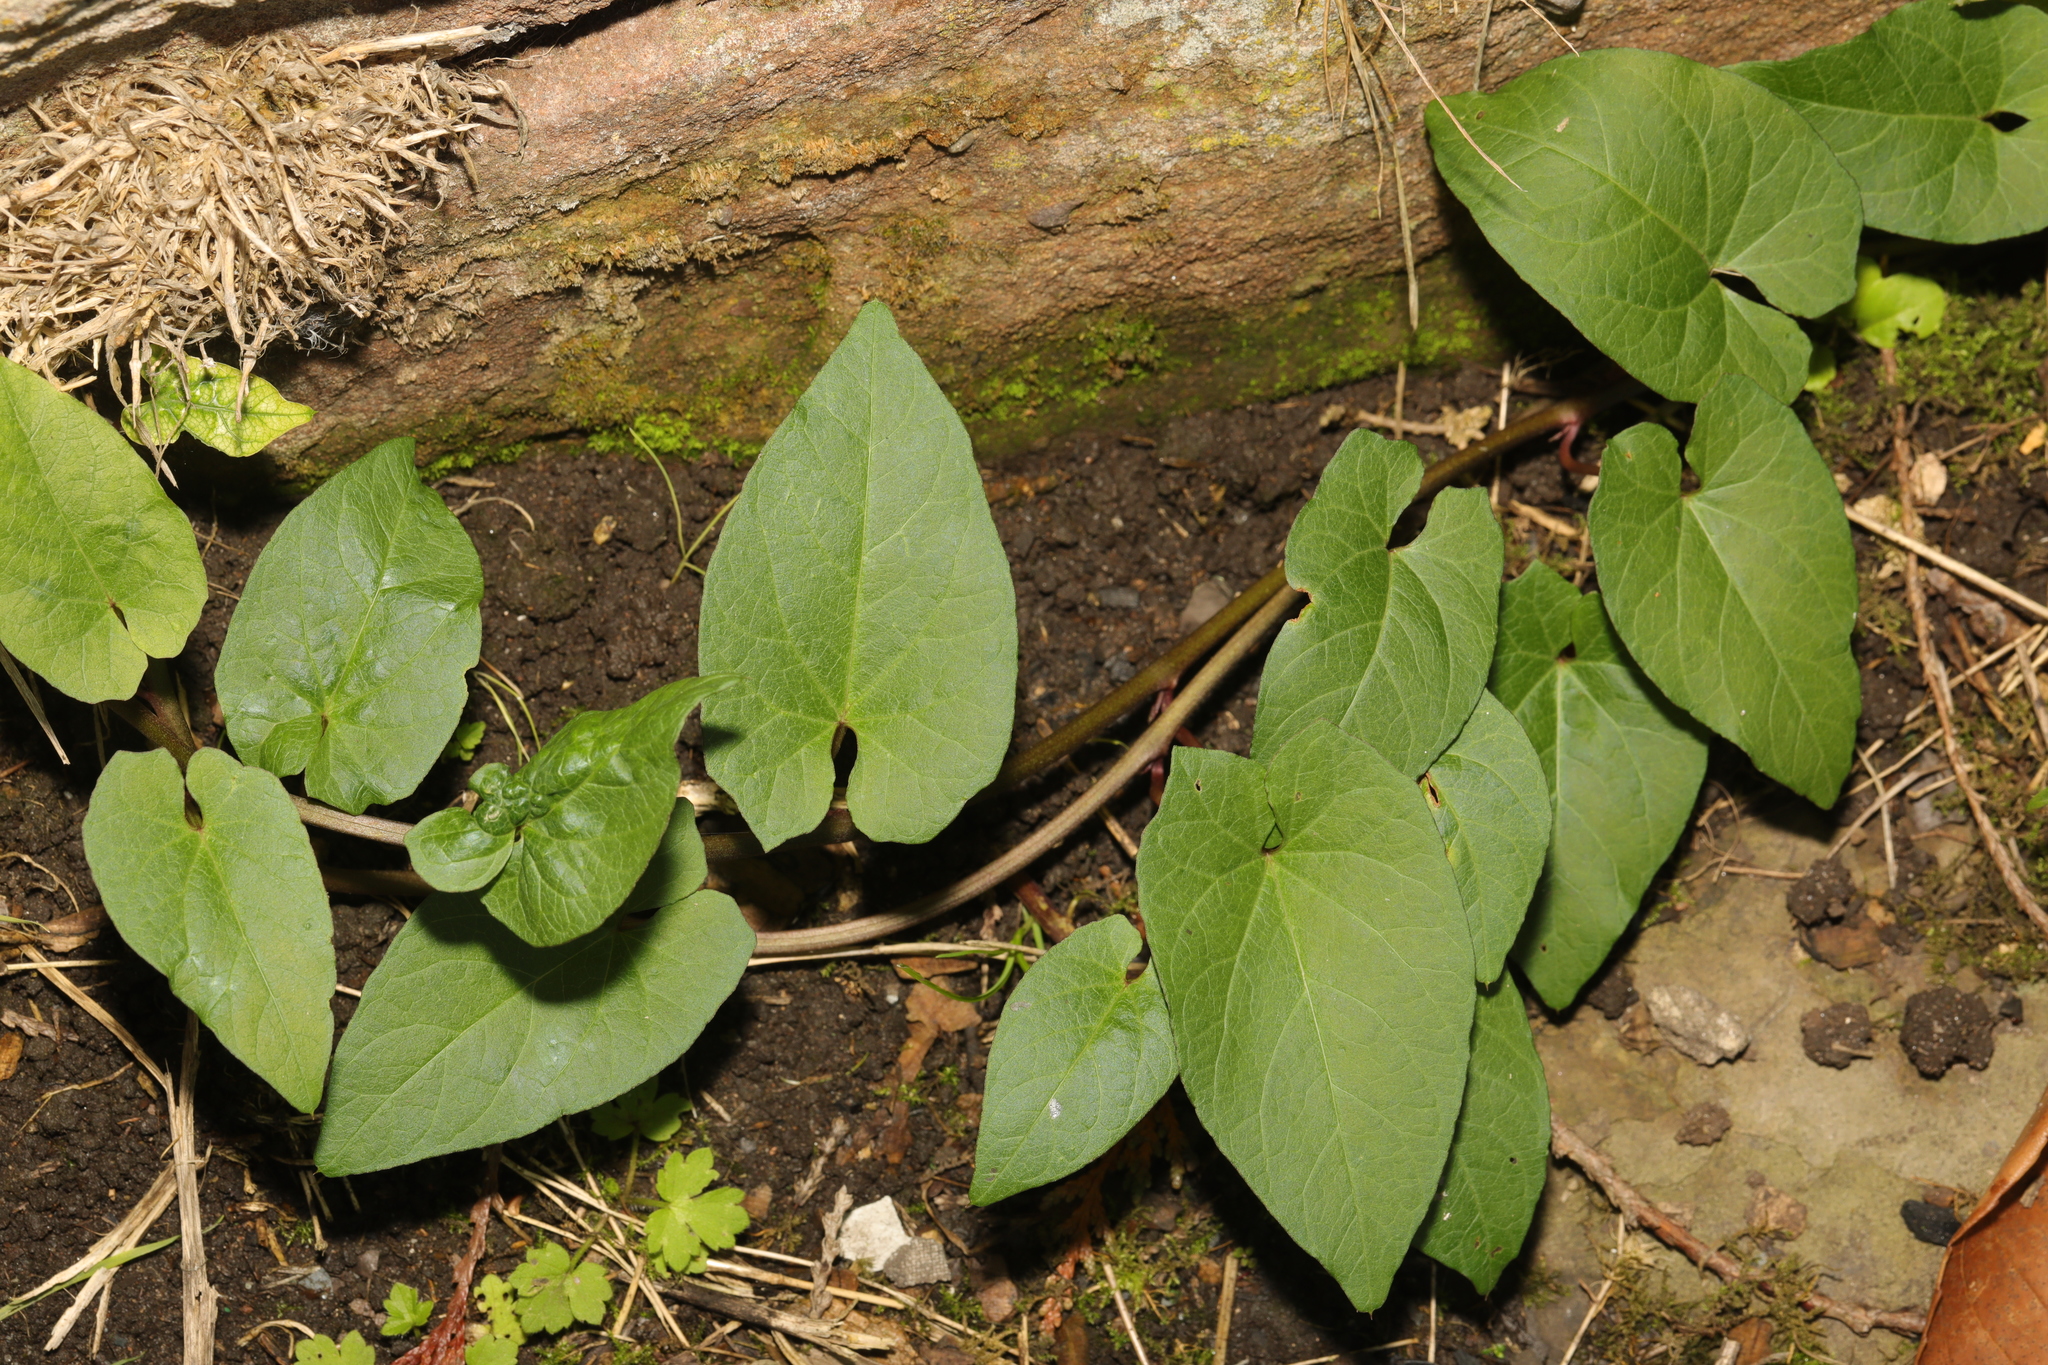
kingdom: Plantae
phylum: Tracheophyta
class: Magnoliopsida
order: Solanales
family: Convolvulaceae
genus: Calystegia
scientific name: Calystegia
